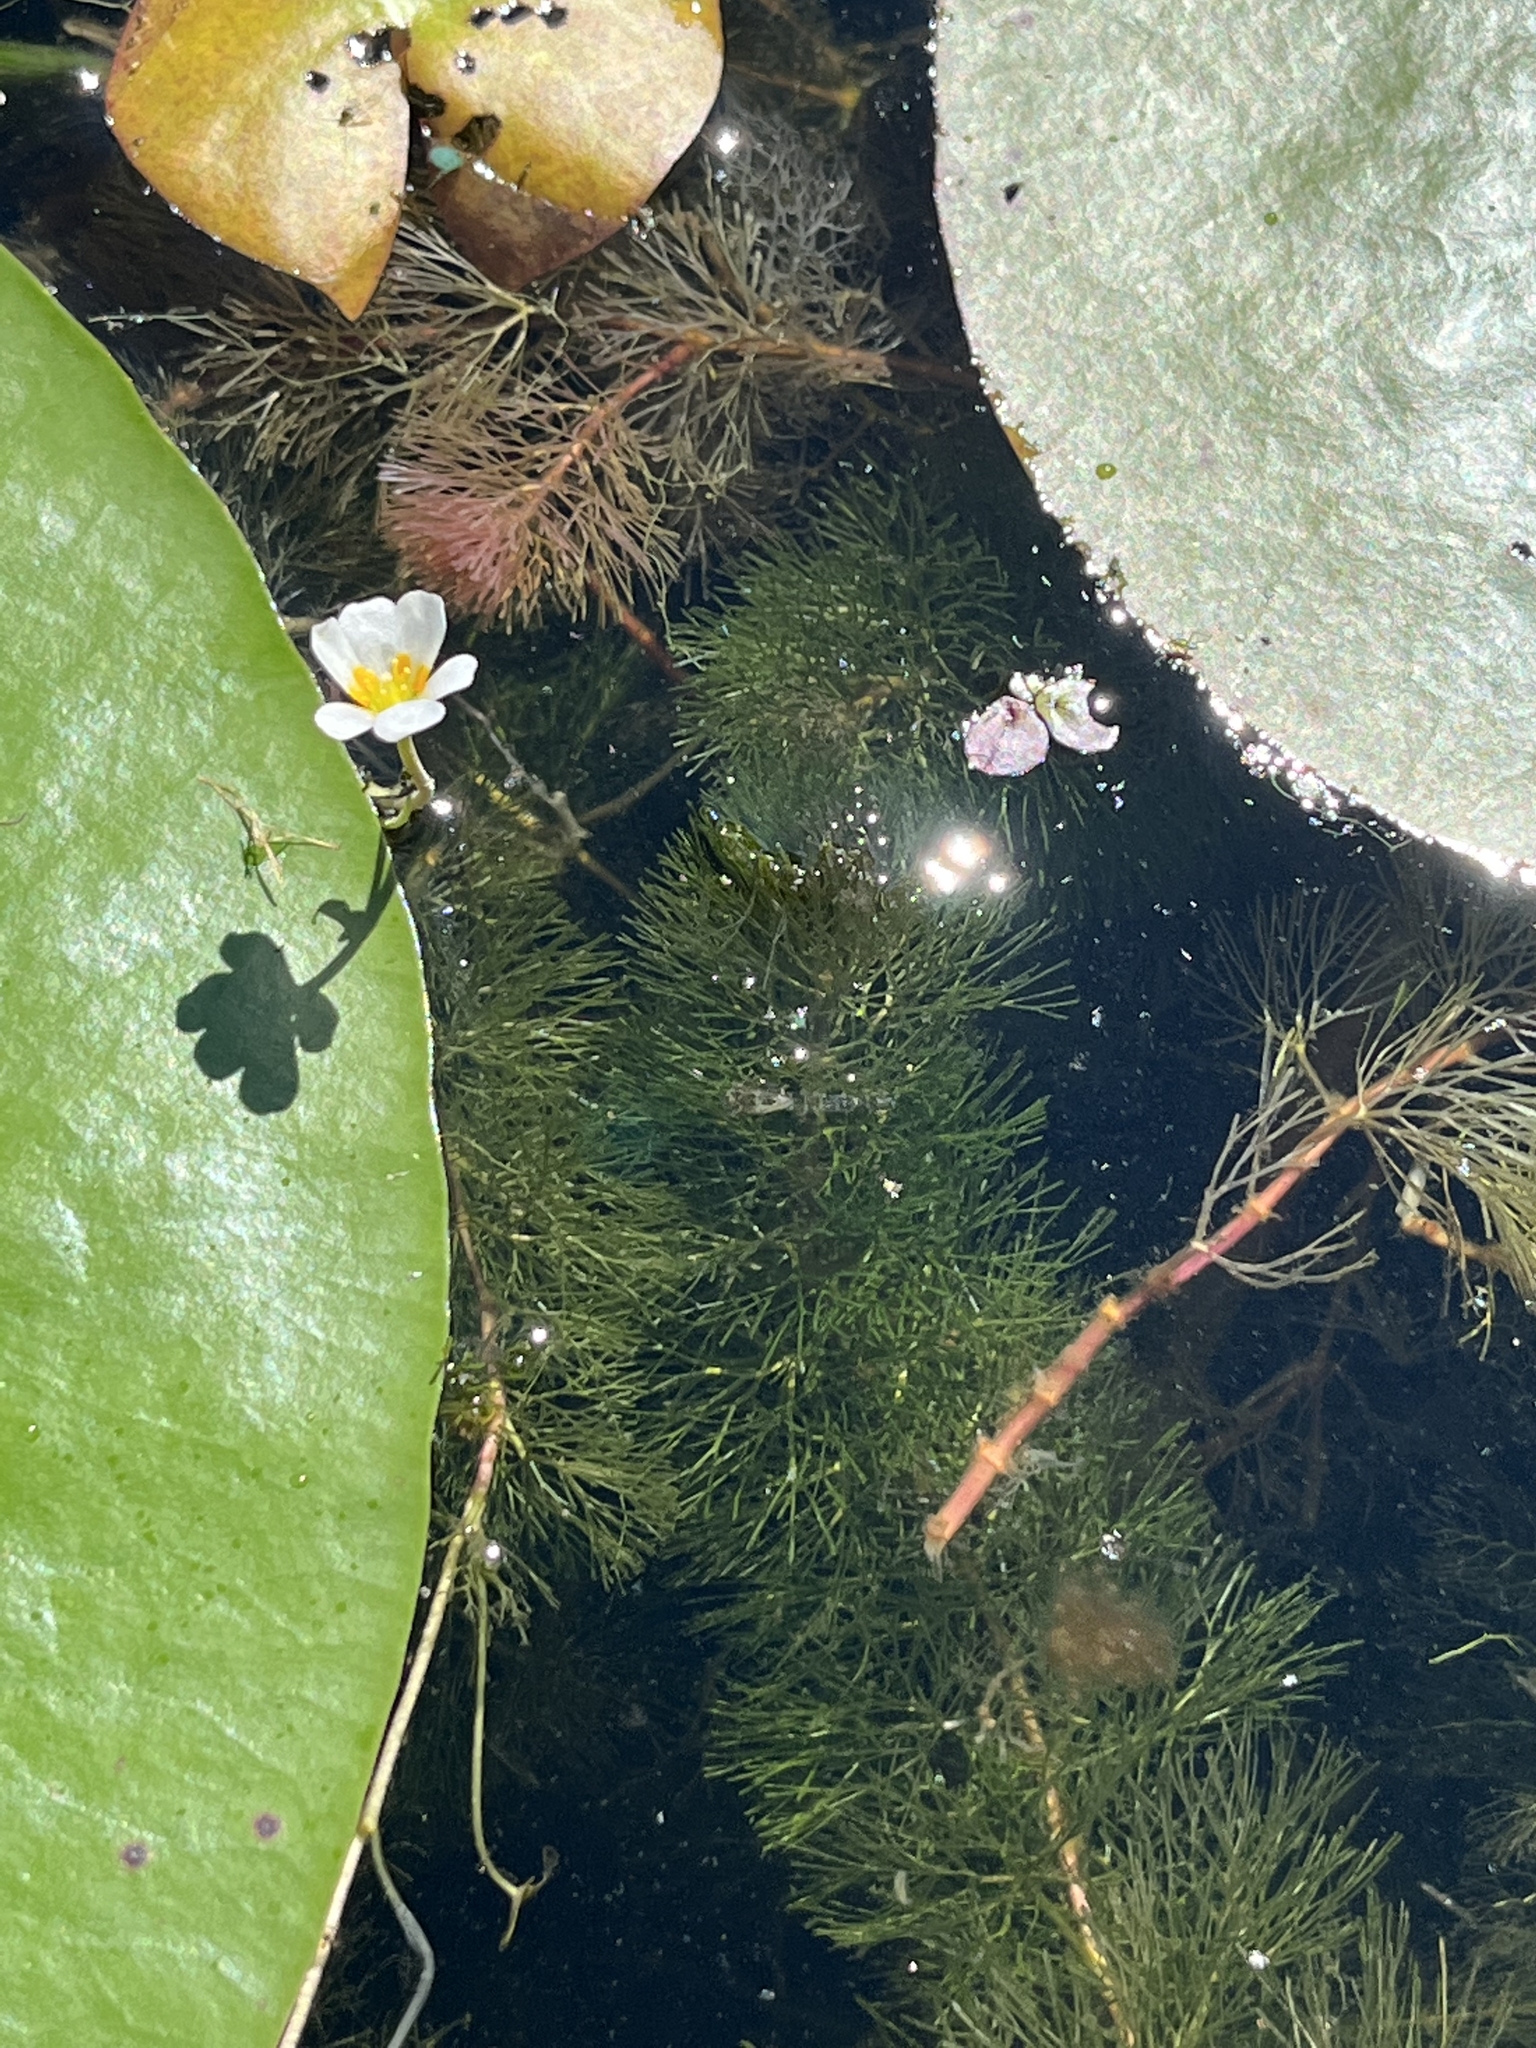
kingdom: Plantae
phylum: Tracheophyta
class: Magnoliopsida
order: Nymphaeales
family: Cabombaceae
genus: Cabomba
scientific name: Cabomba caroliniana
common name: Fanwort
